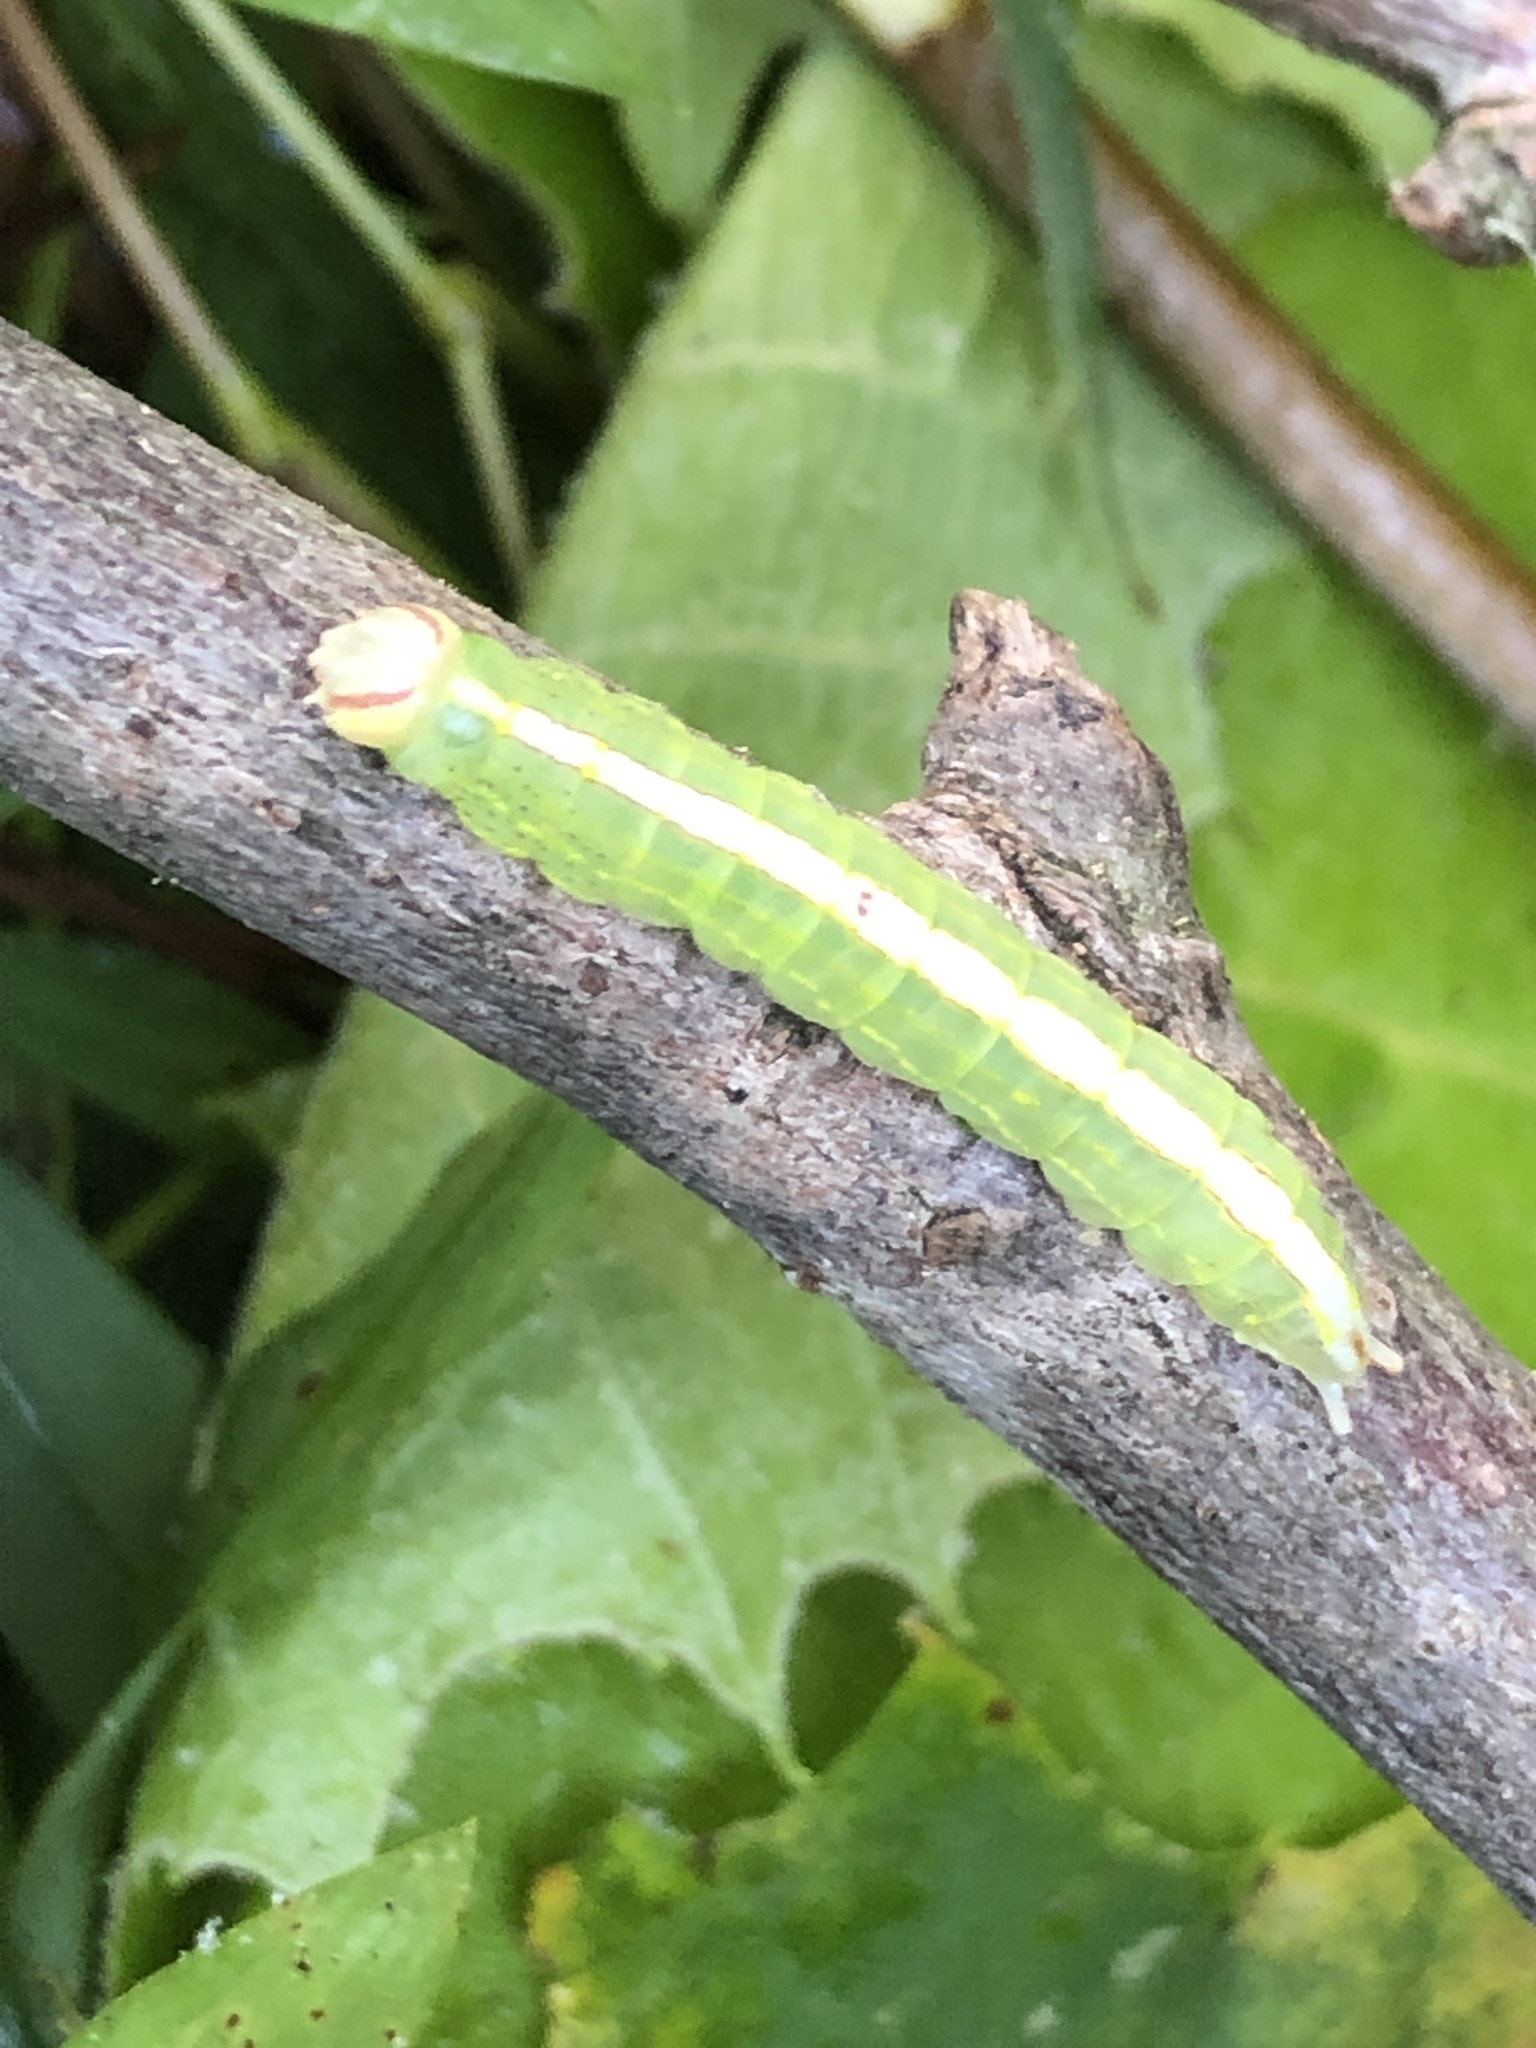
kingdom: Animalia
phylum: Arthropoda
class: Insecta
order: Lepidoptera
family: Notodontidae
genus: Misogada
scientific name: Misogada unicolor
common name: Drab prominent
